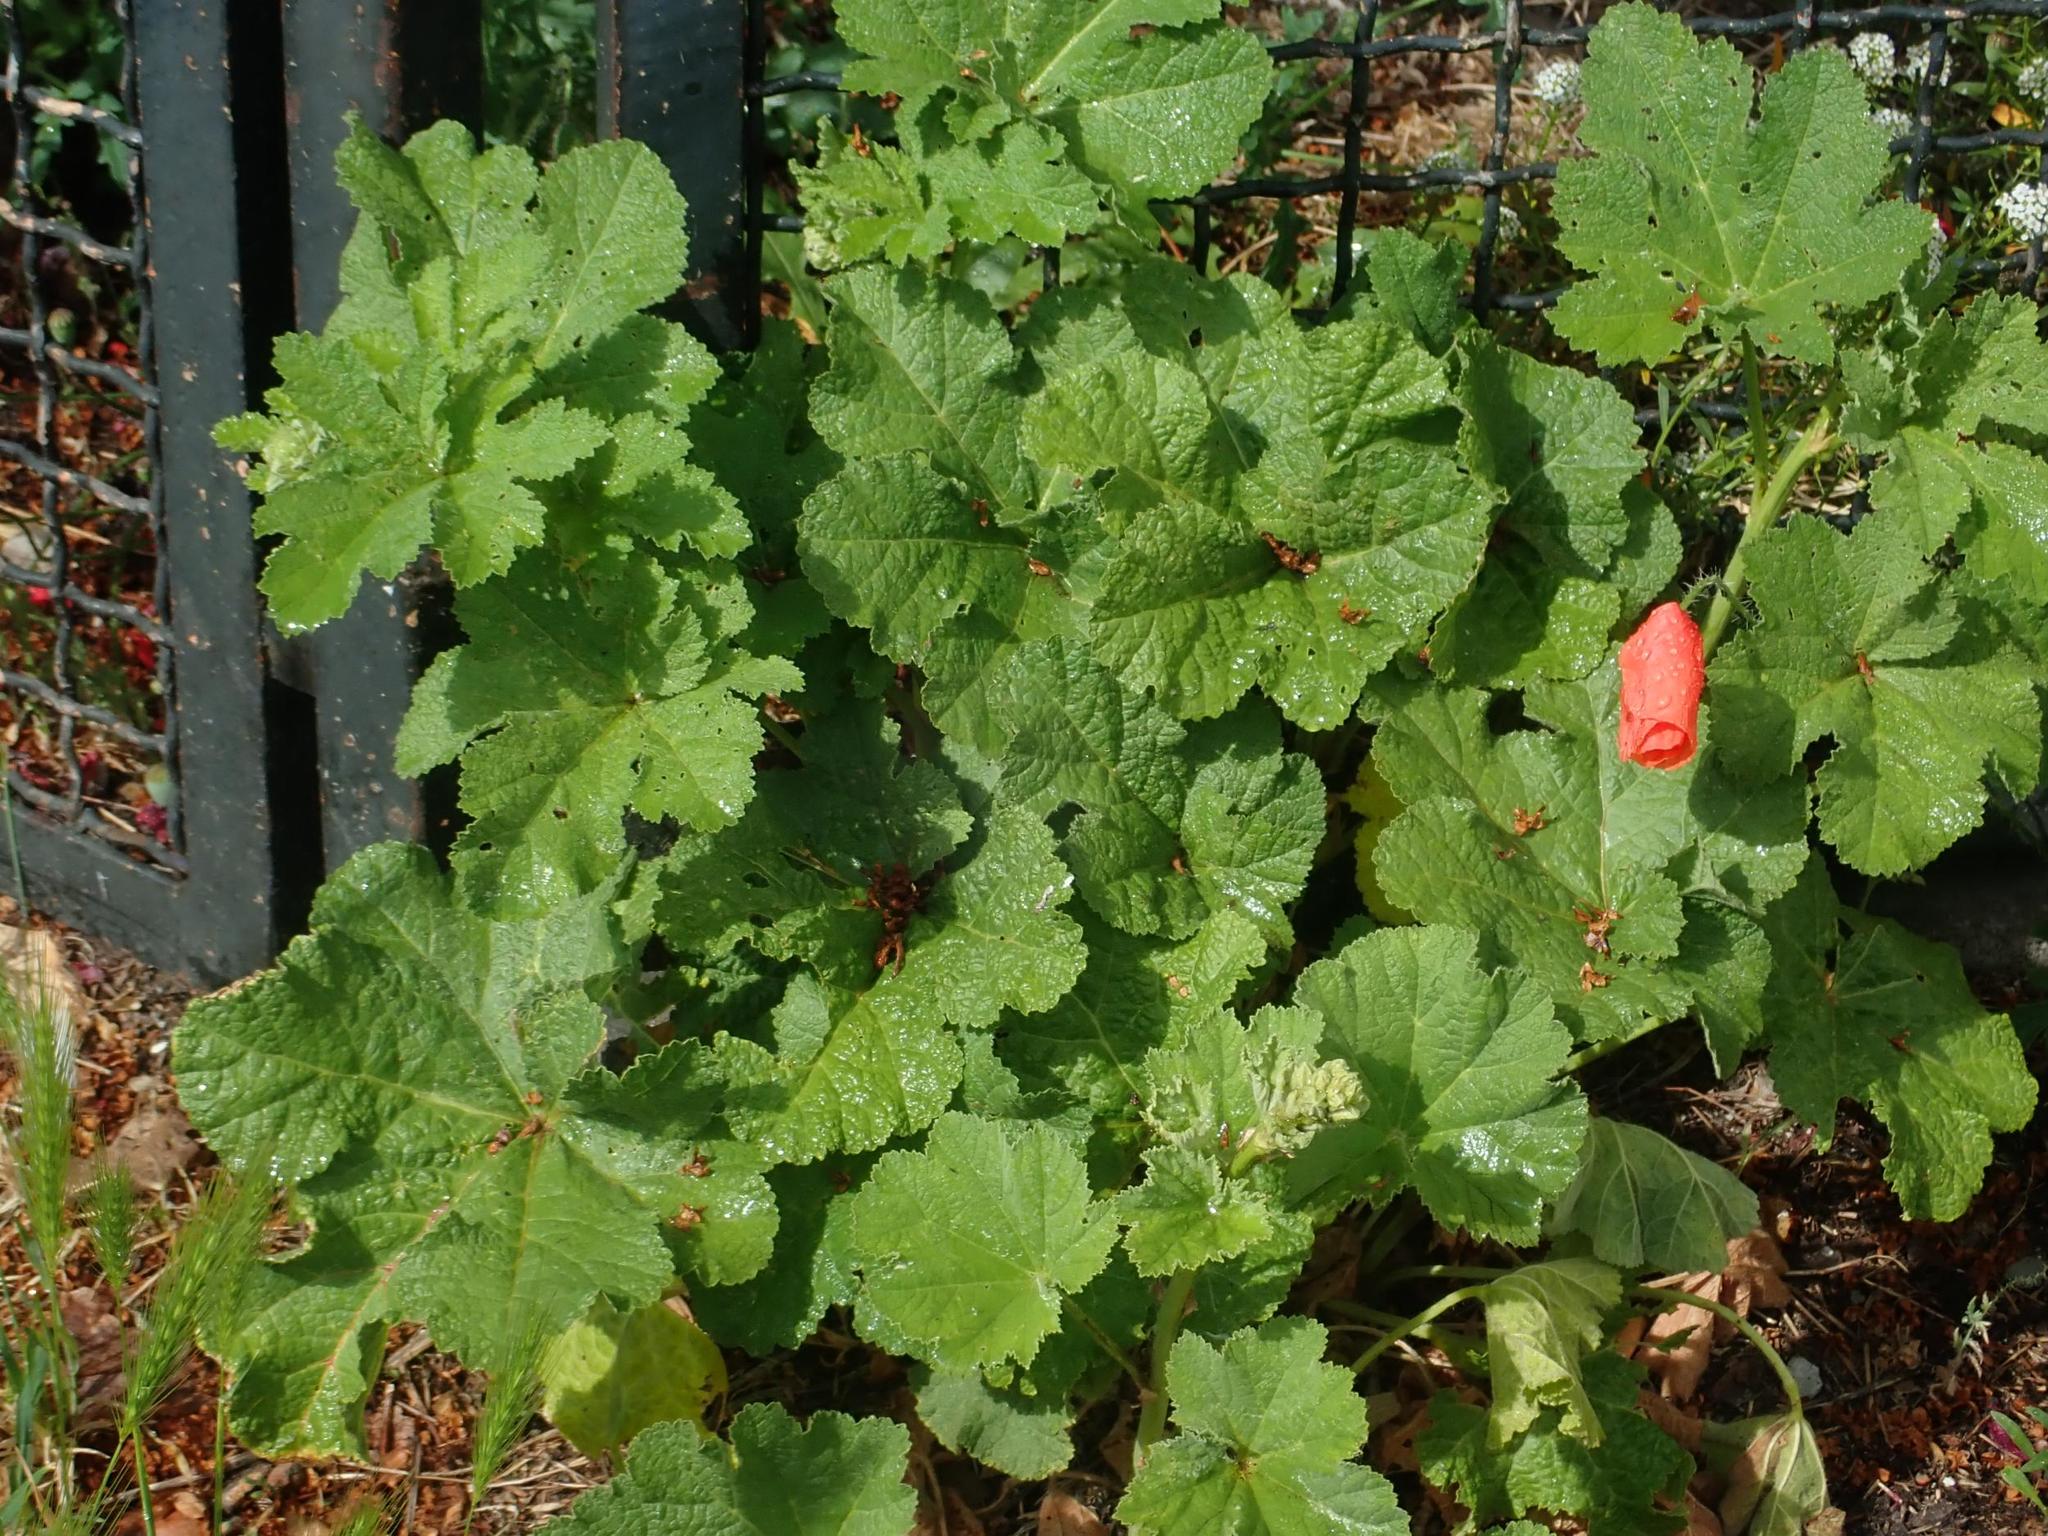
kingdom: Plantae
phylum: Tracheophyta
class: Magnoliopsida
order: Malvales
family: Malvaceae
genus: Alcea
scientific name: Alcea rosea
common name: Hollyhock
